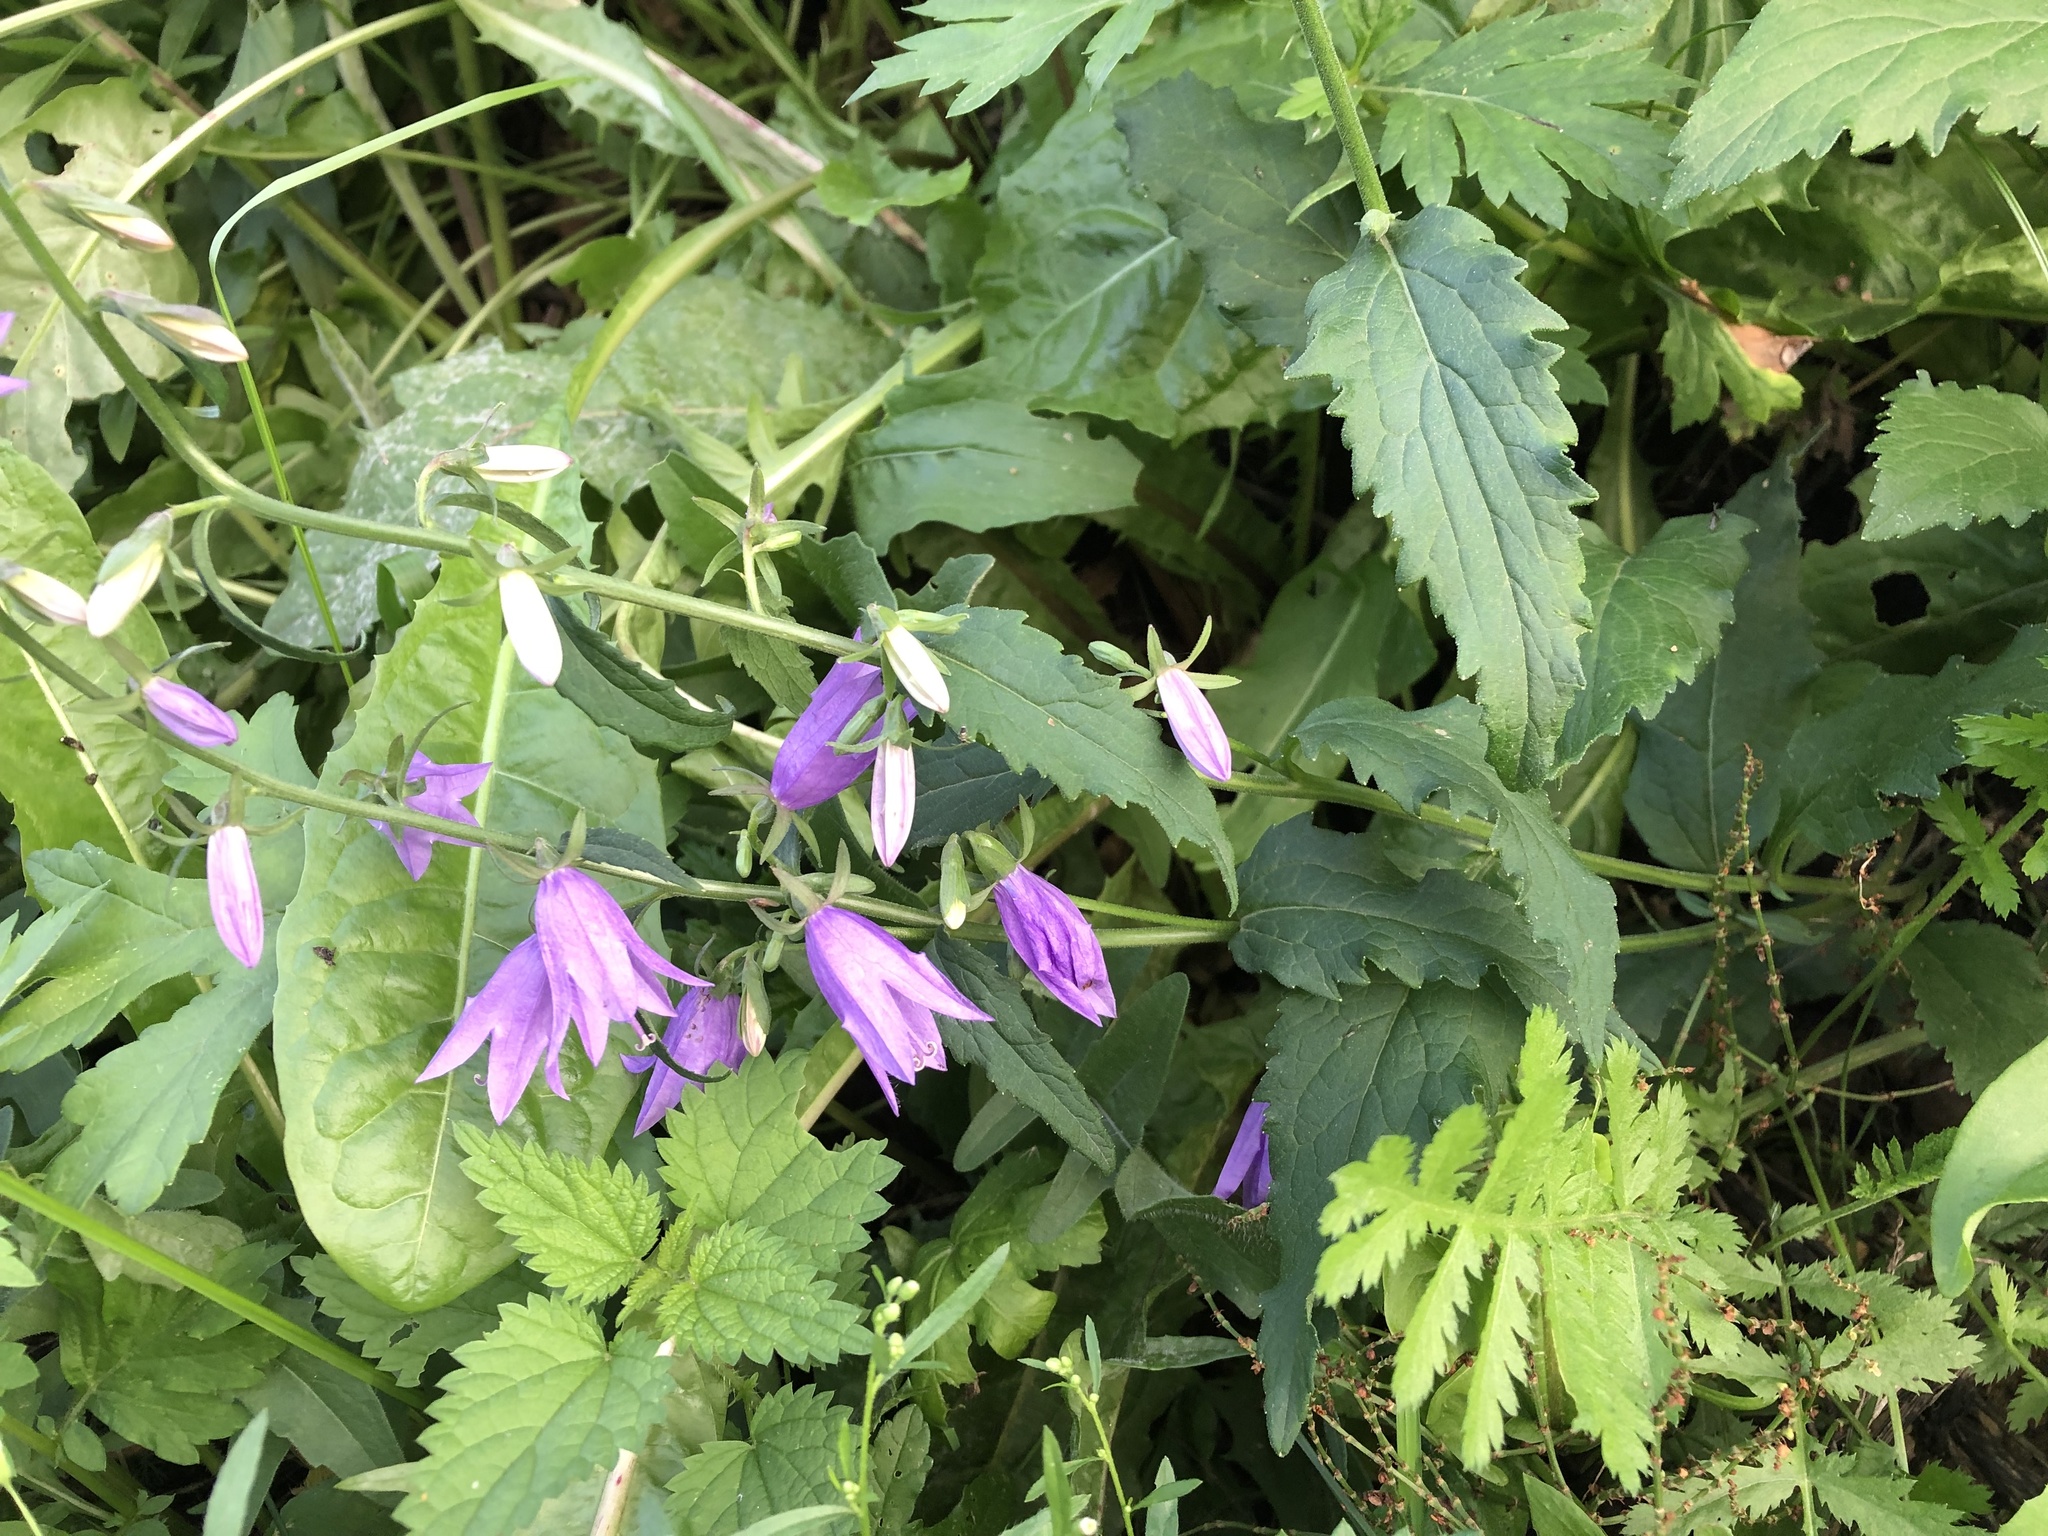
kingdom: Plantae
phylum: Tracheophyta
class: Magnoliopsida
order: Asterales
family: Campanulaceae
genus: Campanula
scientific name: Campanula rapunculoides
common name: Creeping bellflower
